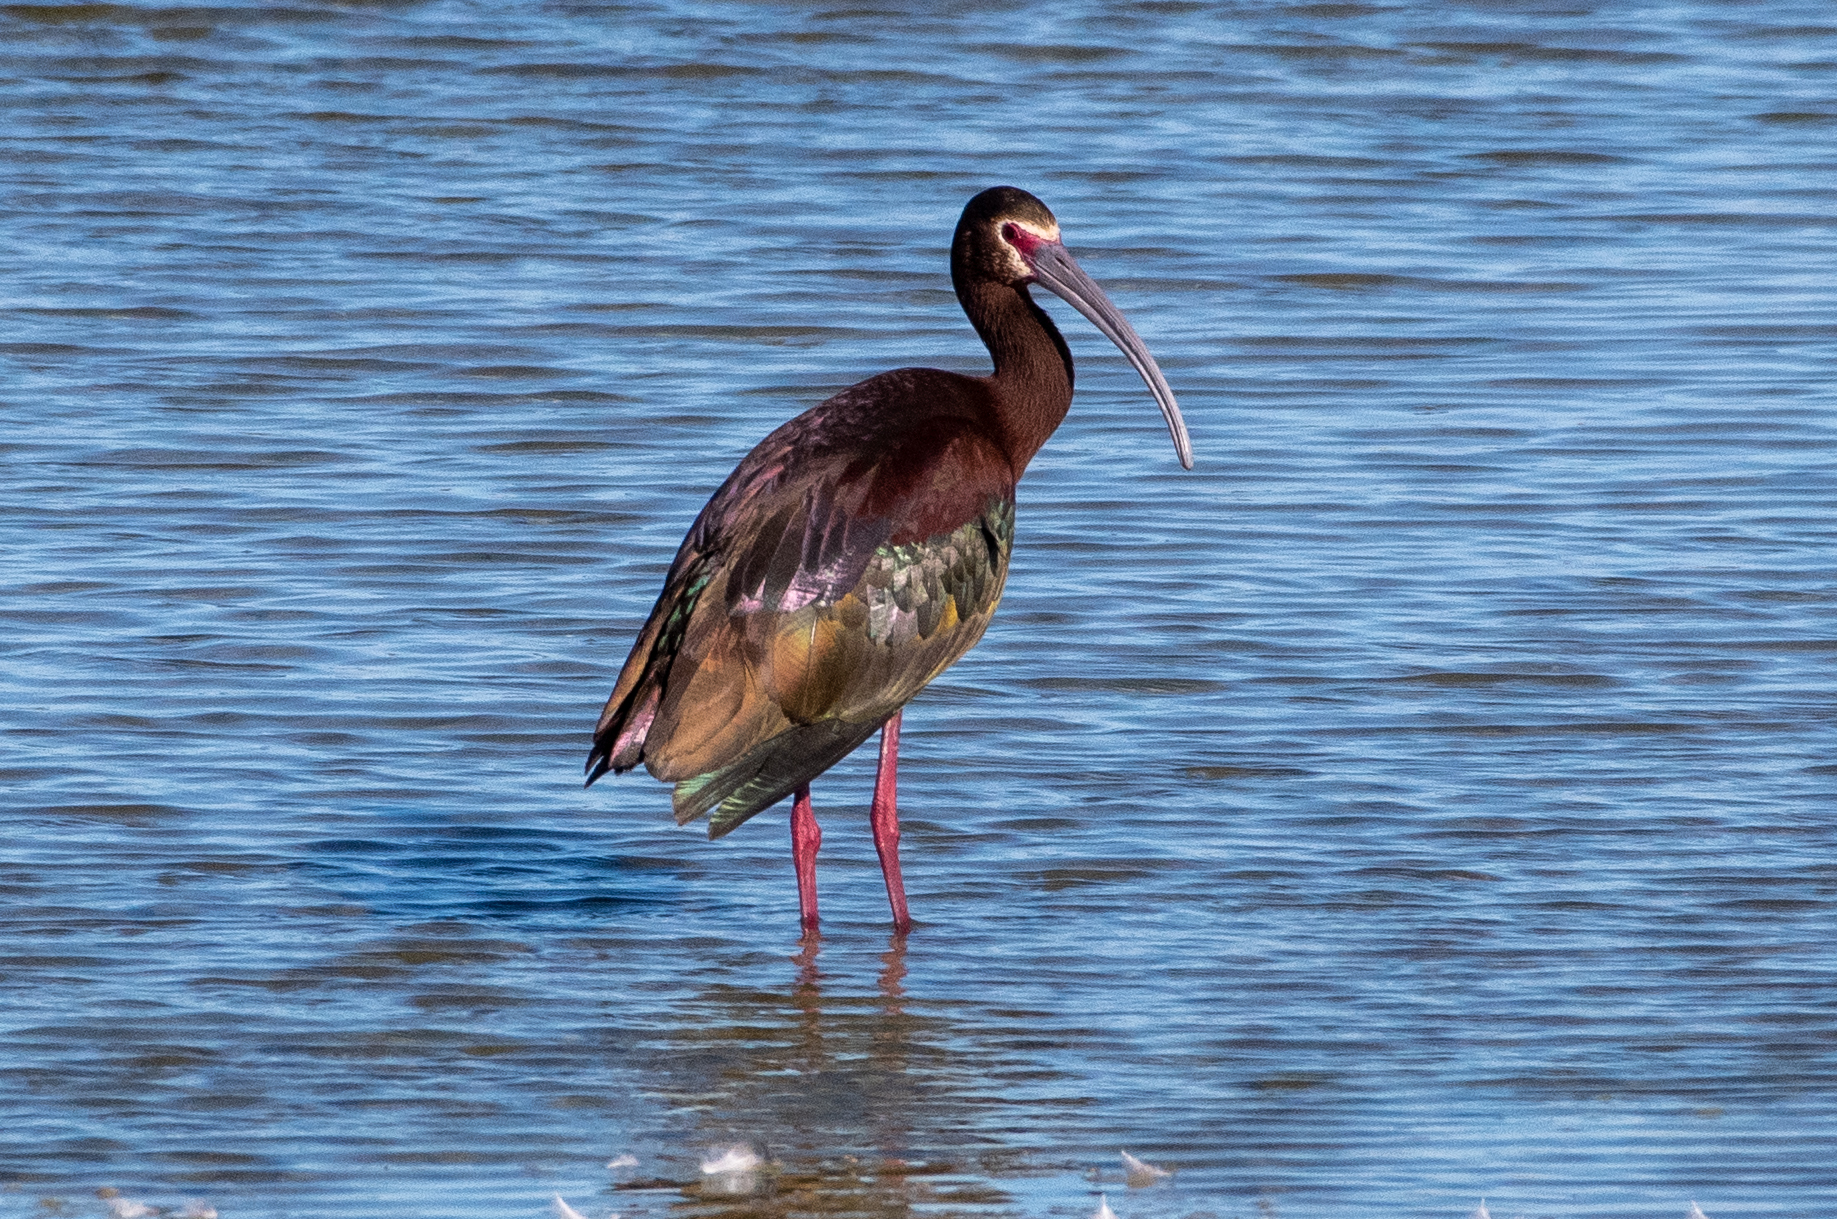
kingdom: Animalia
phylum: Chordata
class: Aves
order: Pelecaniformes
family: Threskiornithidae
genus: Plegadis
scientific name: Plegadis chihi
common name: White-faced ibis
